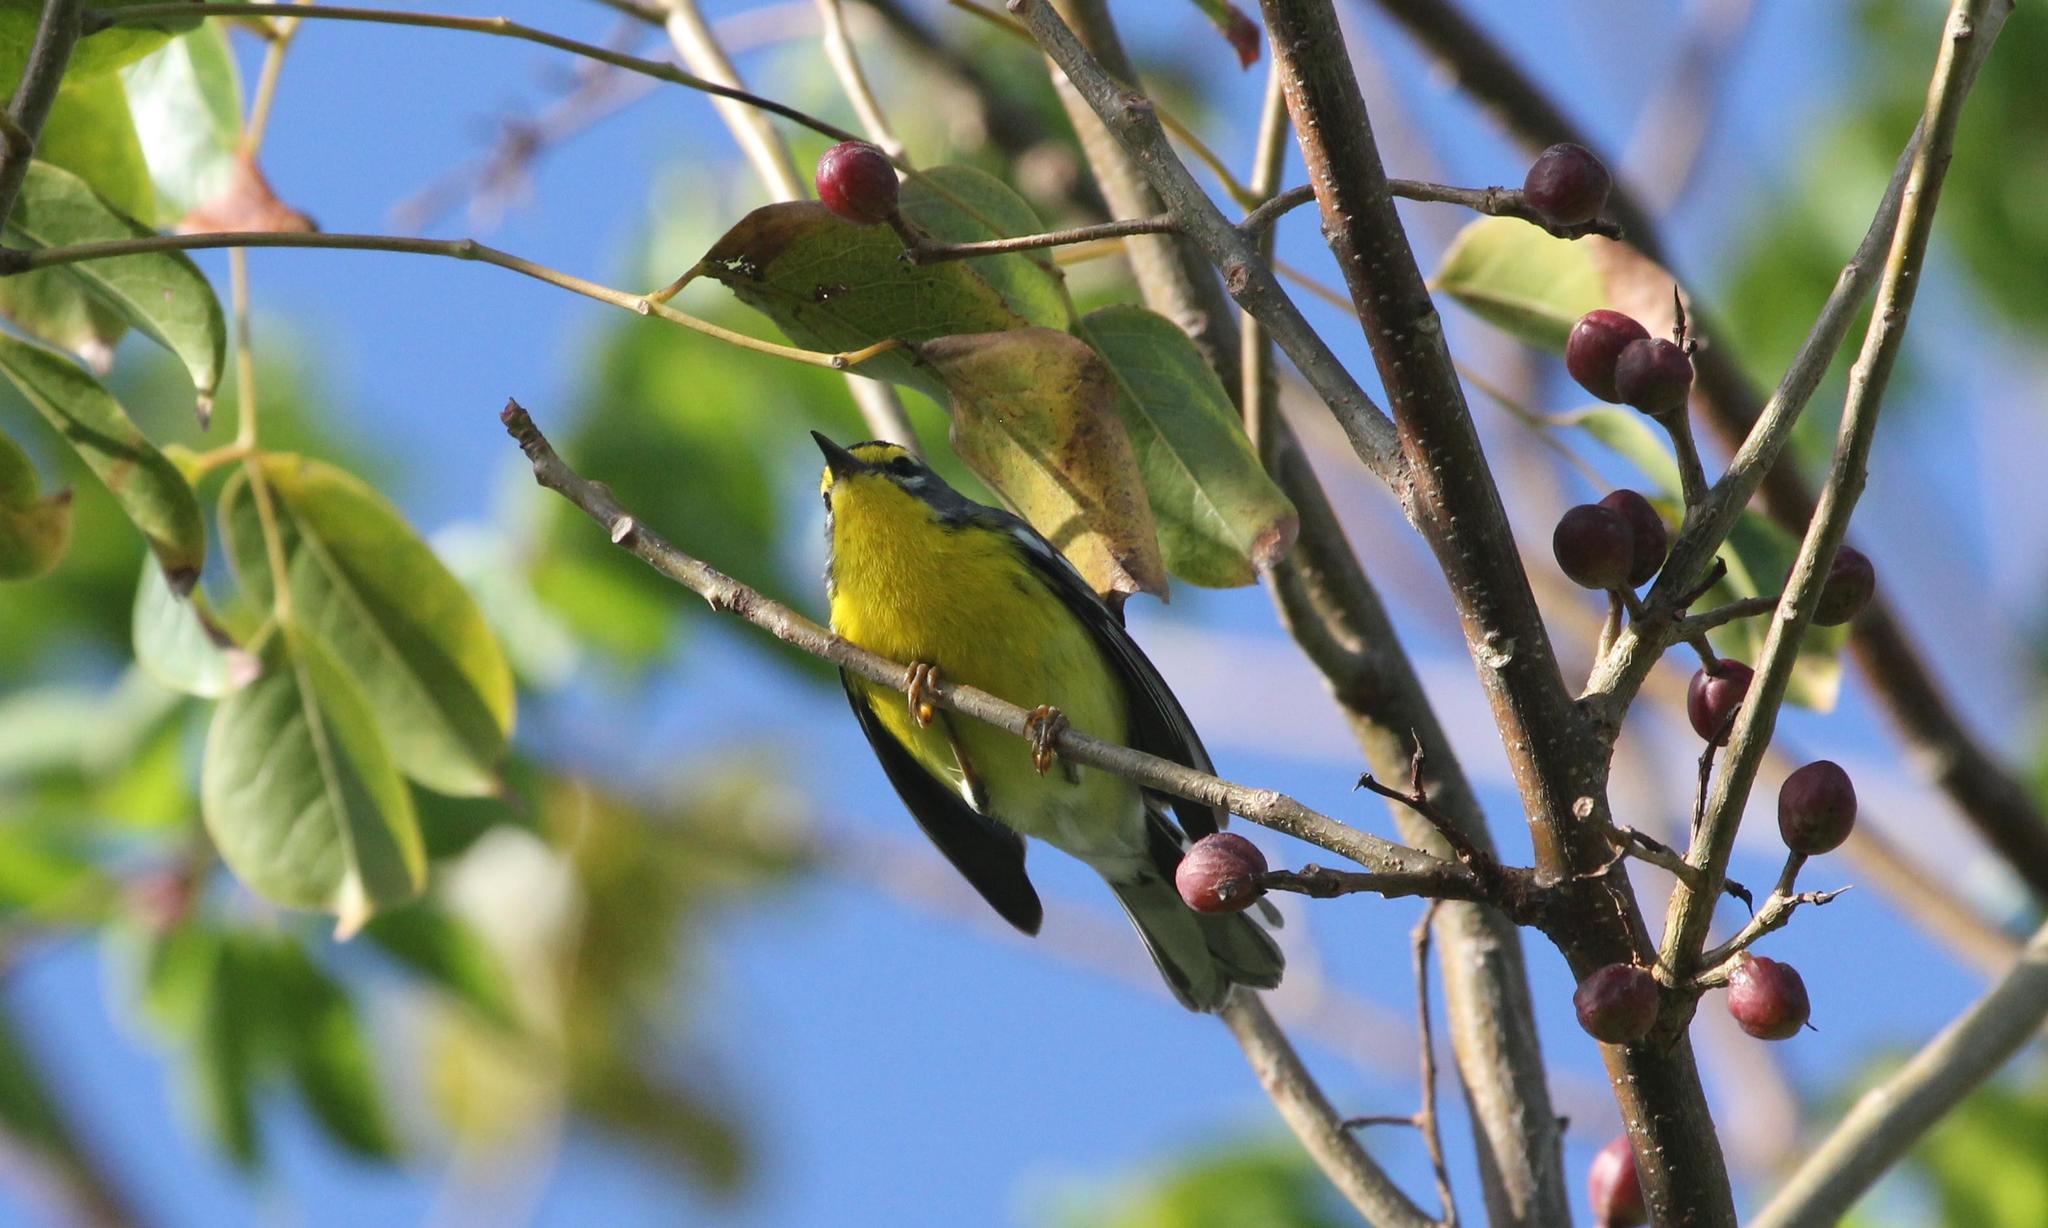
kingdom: Animalia
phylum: Chordata
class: Aves
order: Passeriformes
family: Parulidae
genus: Setophaga
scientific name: Setophaga adelaidae
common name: Adelaide's warbler
